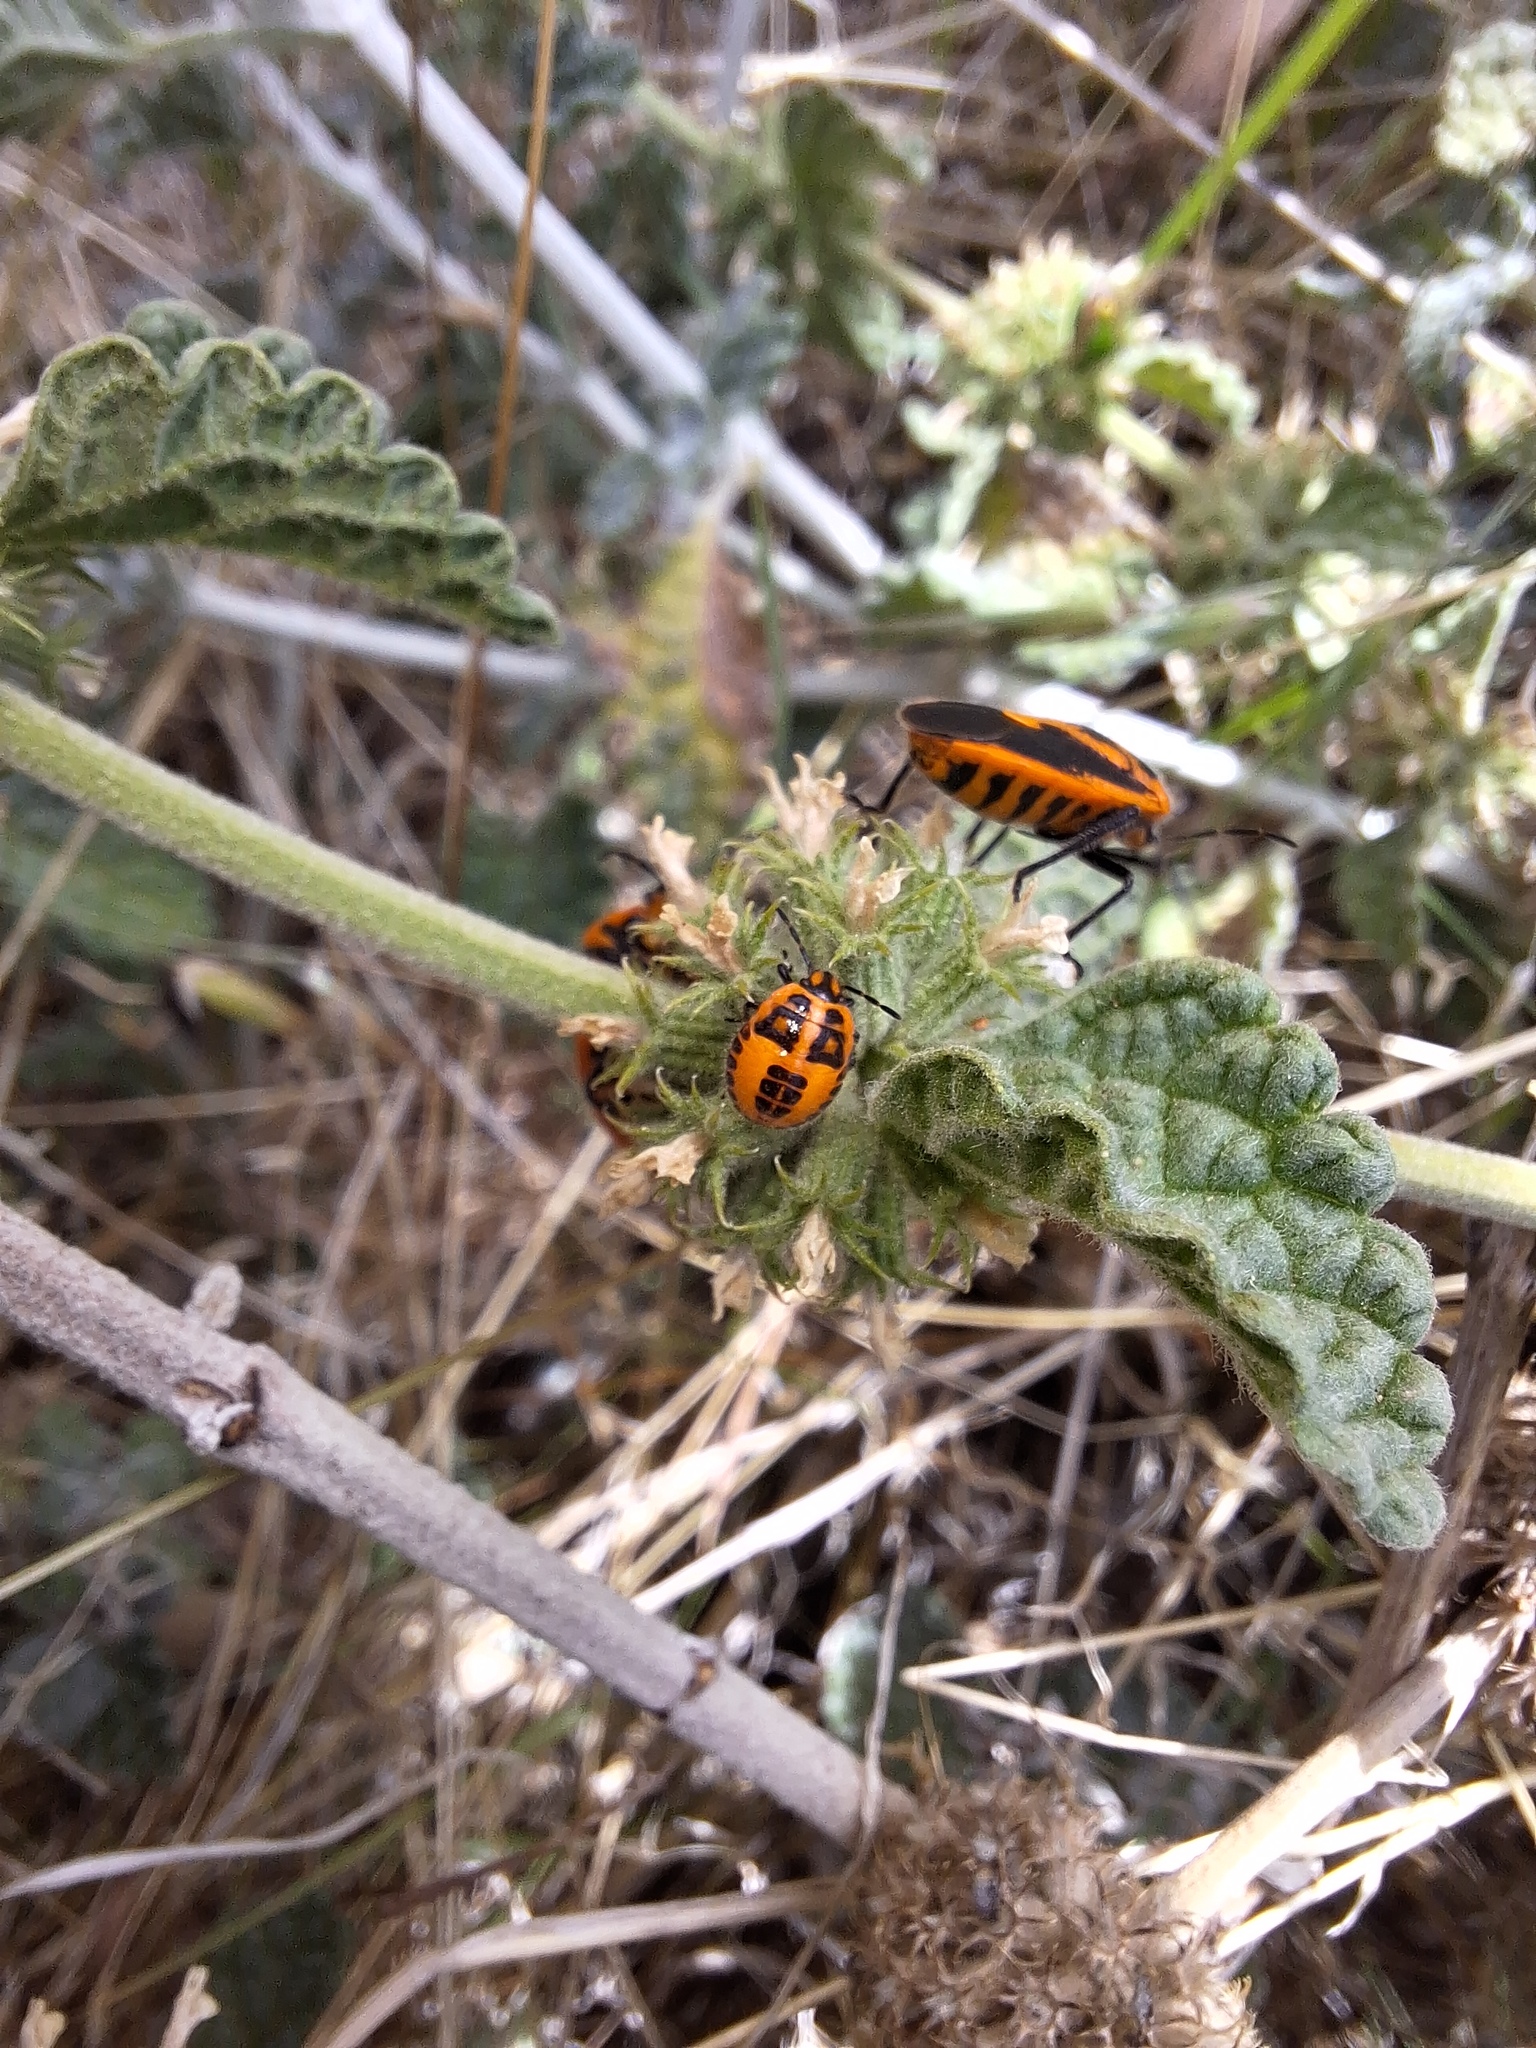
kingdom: Plantae
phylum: Tracheophyta
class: Magnoliopsida
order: Lamiales
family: Lamiaceae
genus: Marrubium
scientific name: Marrubium vulgare
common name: Horehound
